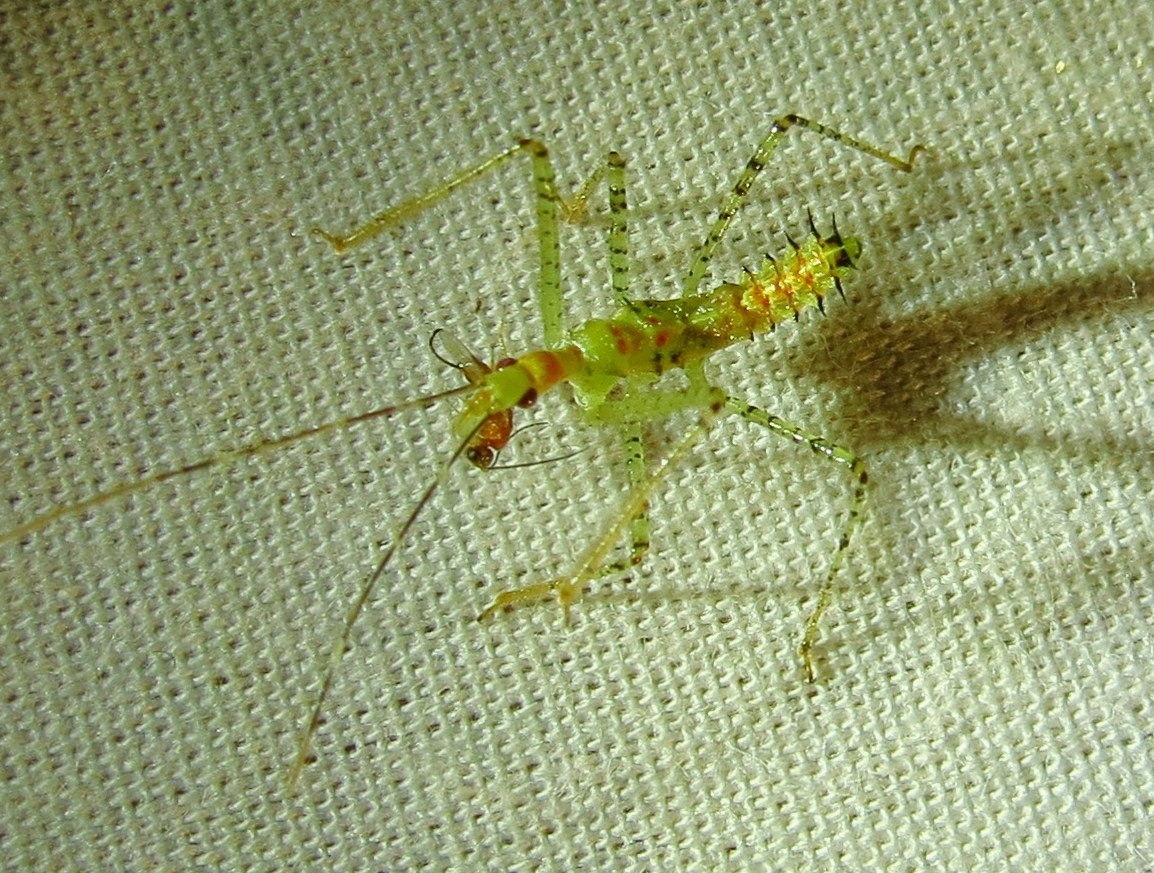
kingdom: Animalia
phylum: Arthropoda
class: Insecta
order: Hemiptera
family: Reduviidae
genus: Zelus
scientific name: Zelus renardii
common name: Assassin bug
